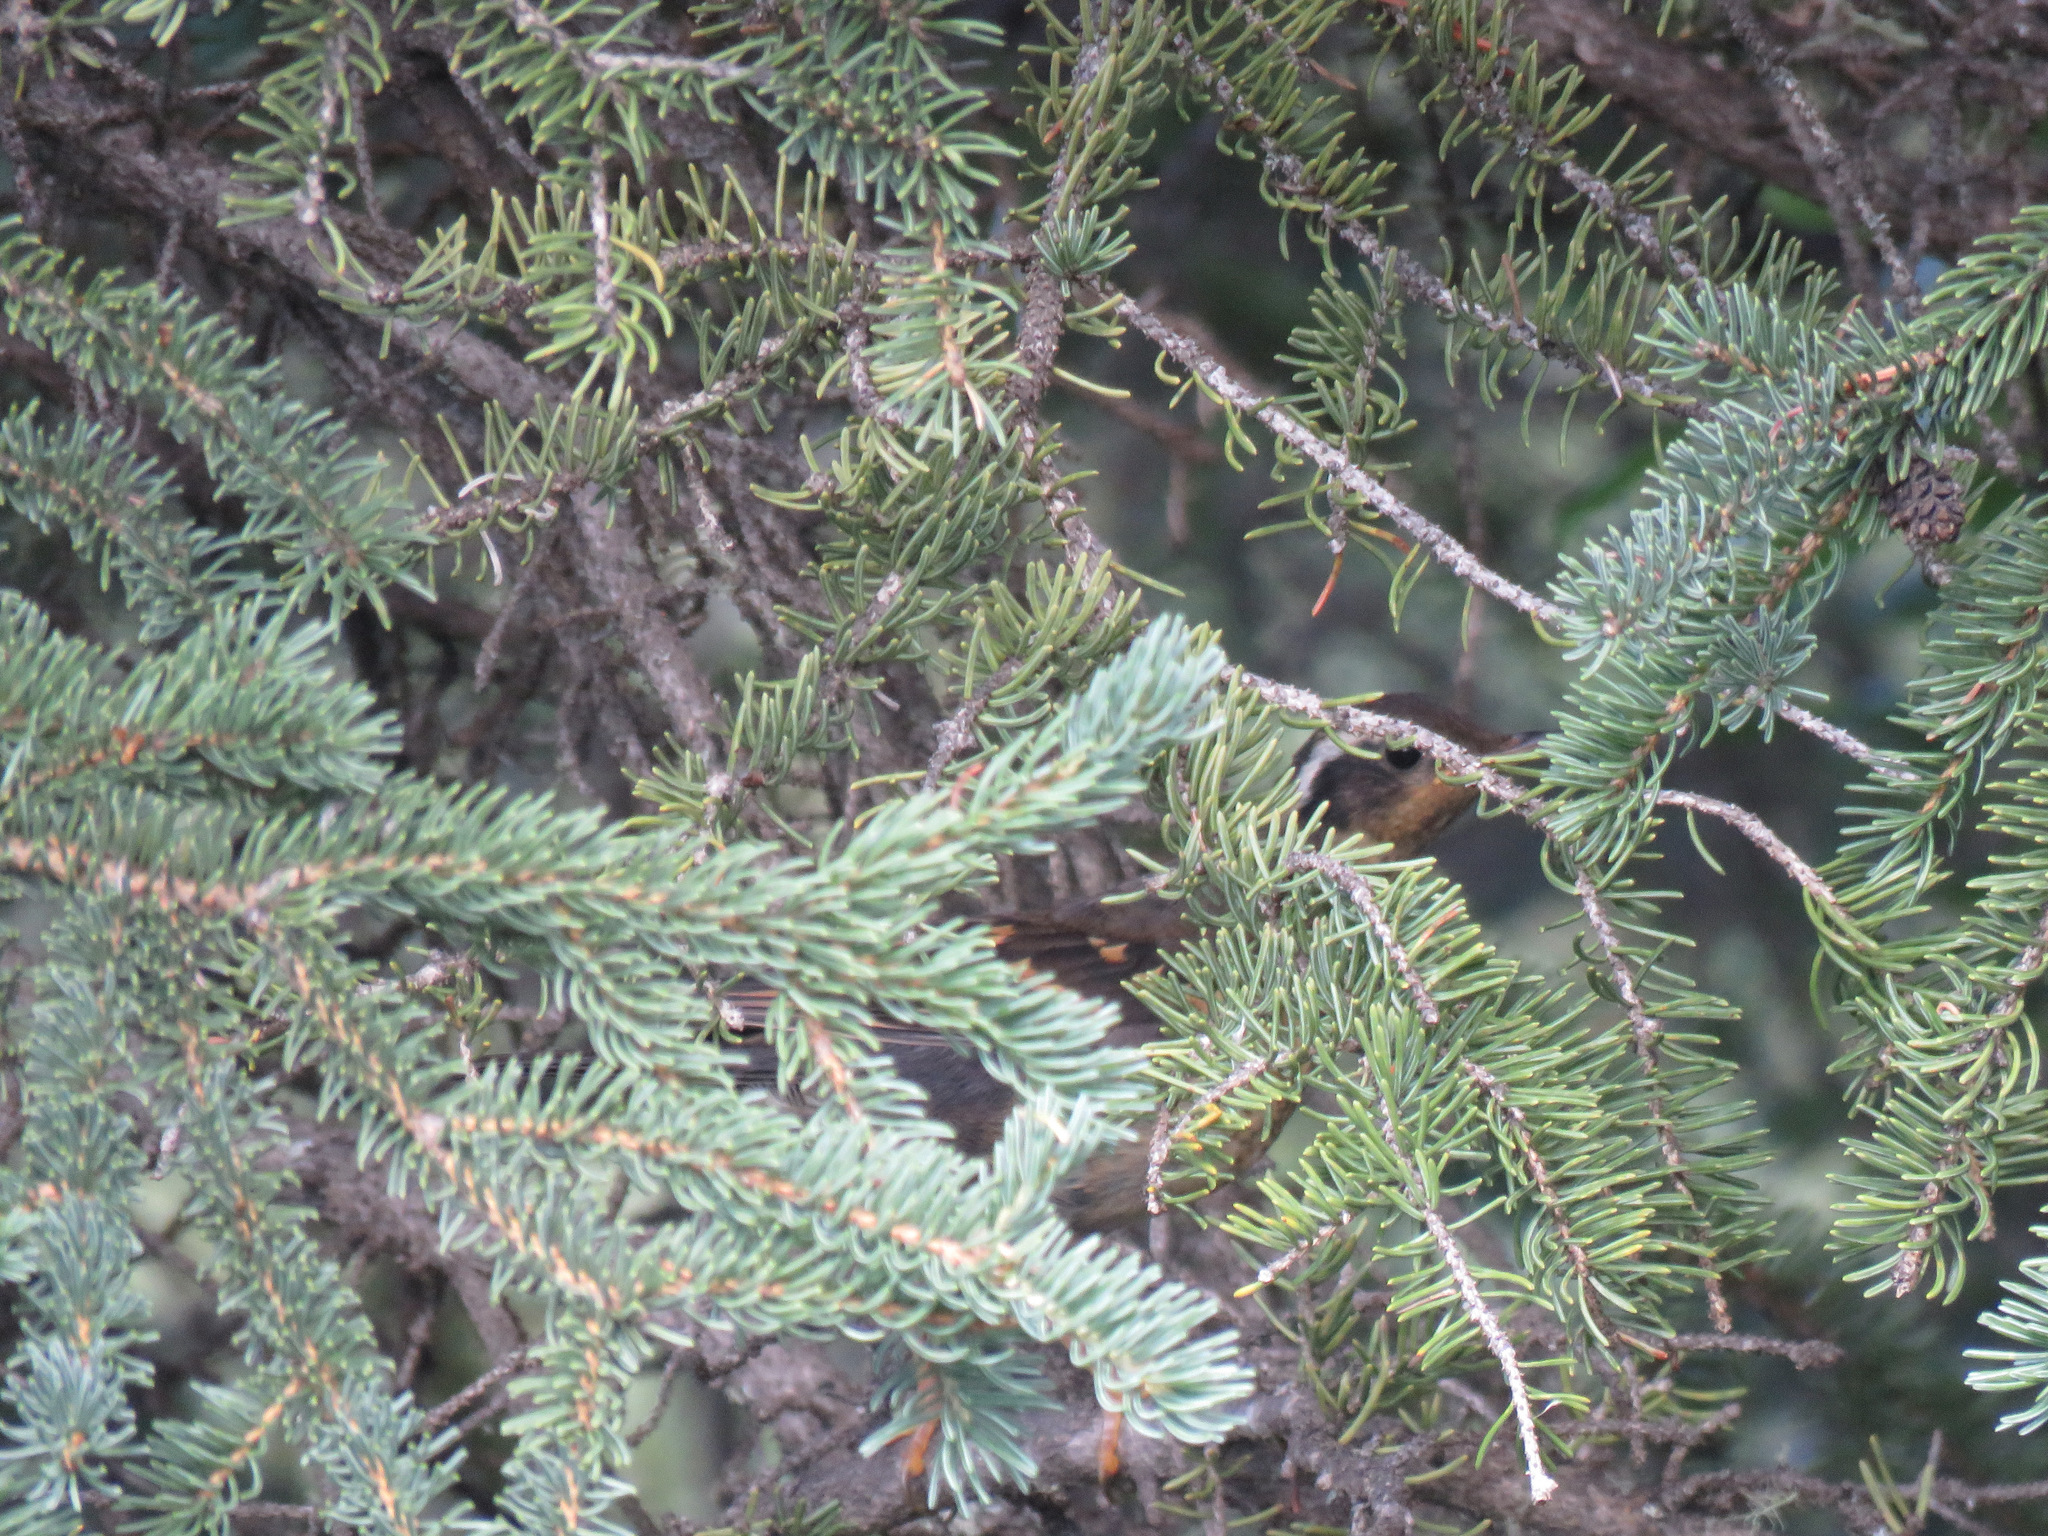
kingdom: Animalia
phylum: Chordata
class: Aves
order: Passeriformes
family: Turdidae
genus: Ixoreus
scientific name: Ixoreus naevius
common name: Varied thrush
